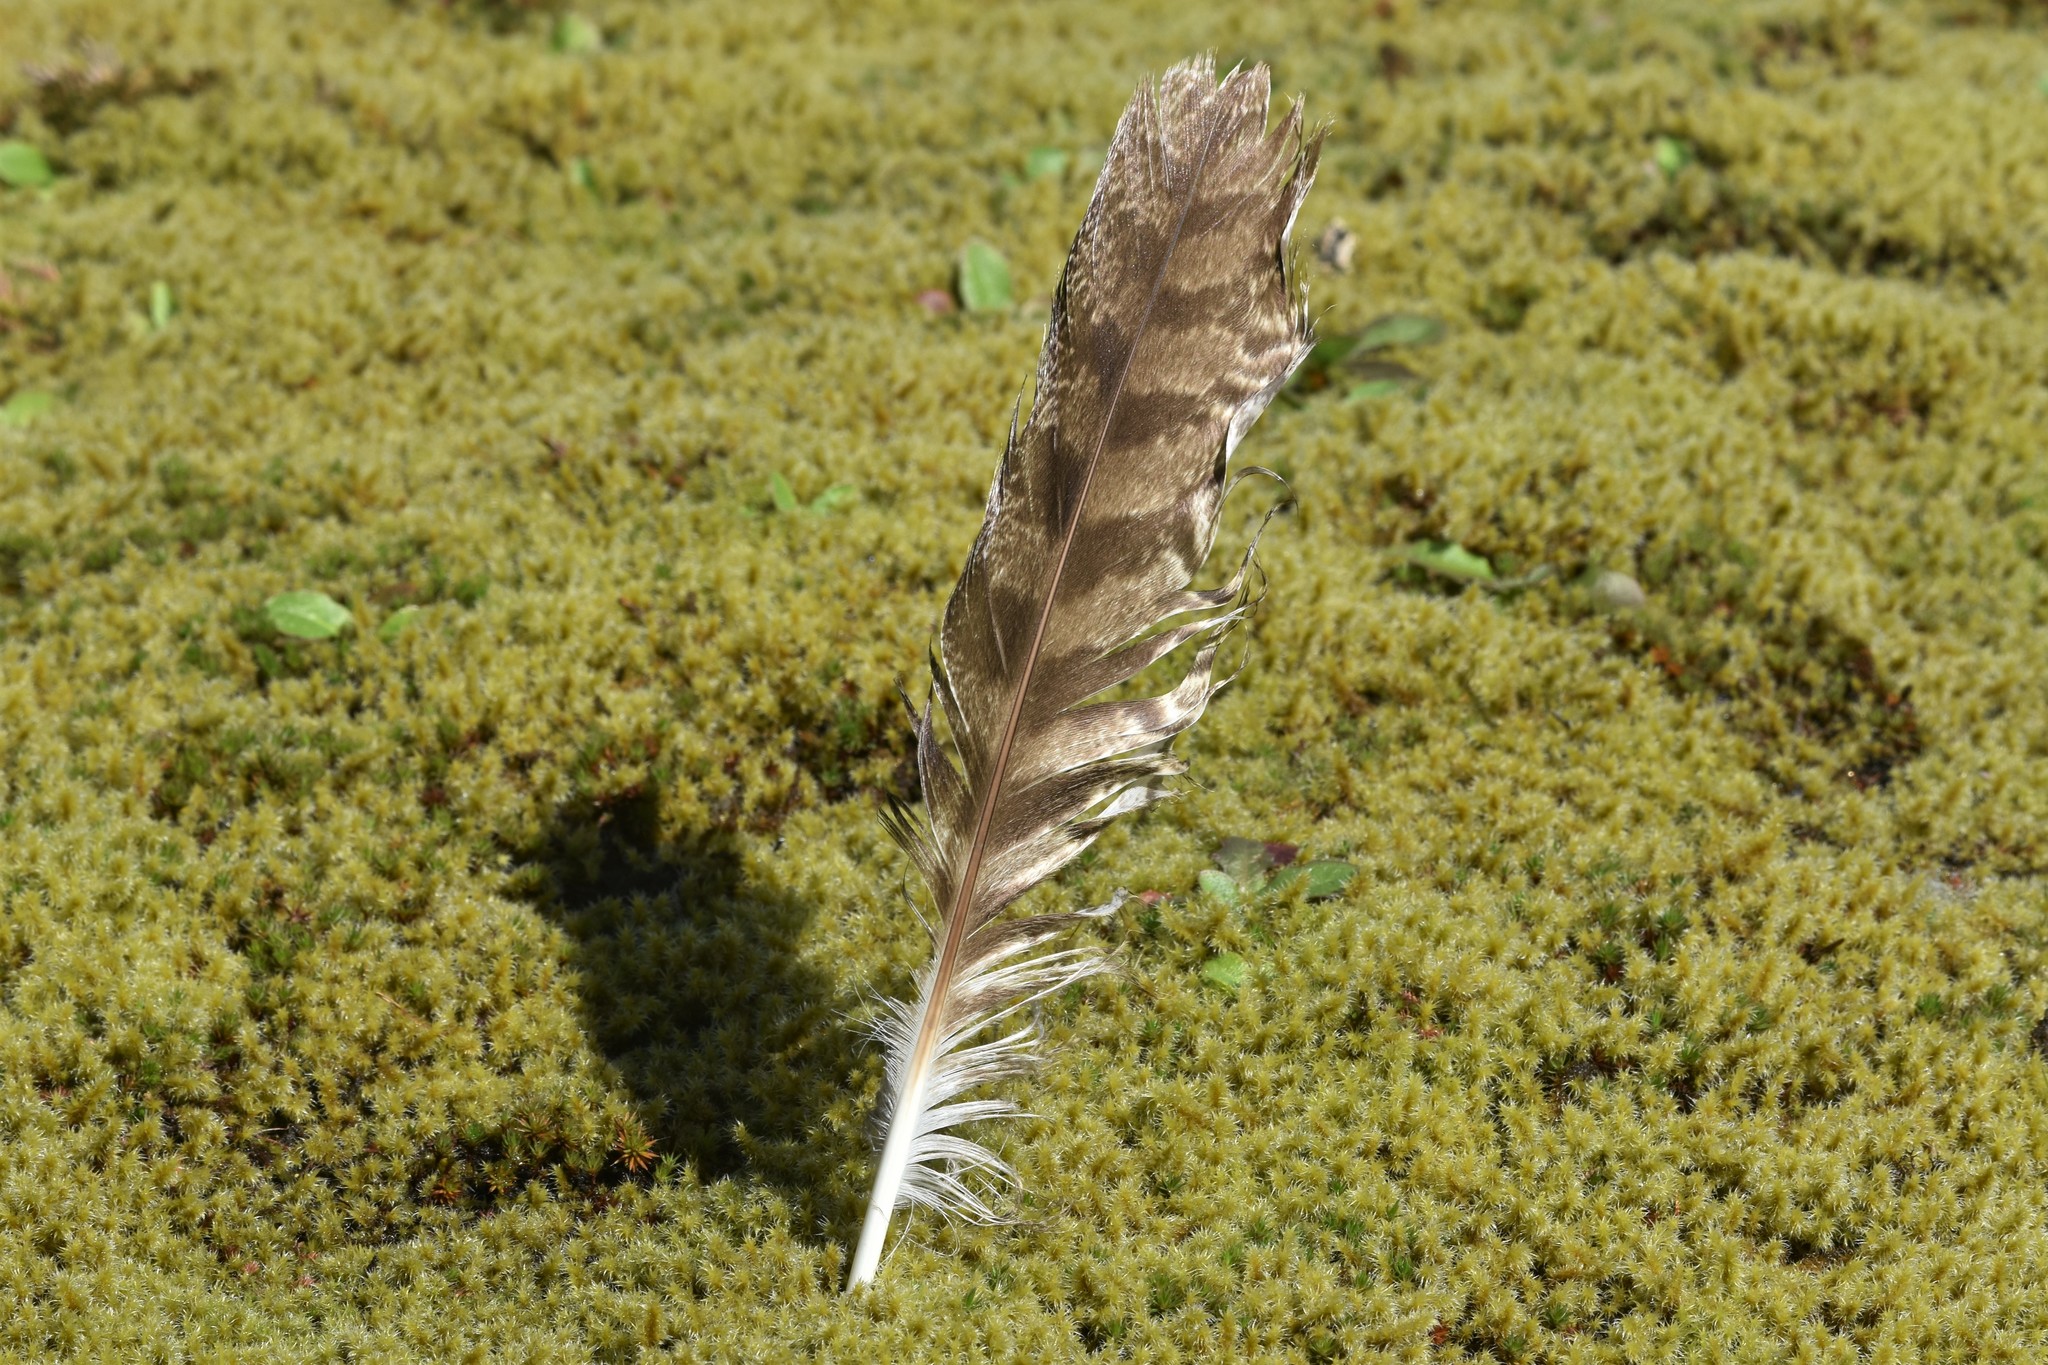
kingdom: Animalia
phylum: Chordata
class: Aves
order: Strigiformes
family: Strigidae
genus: Bubo
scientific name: Bubo virginianus
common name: Great horned owl
